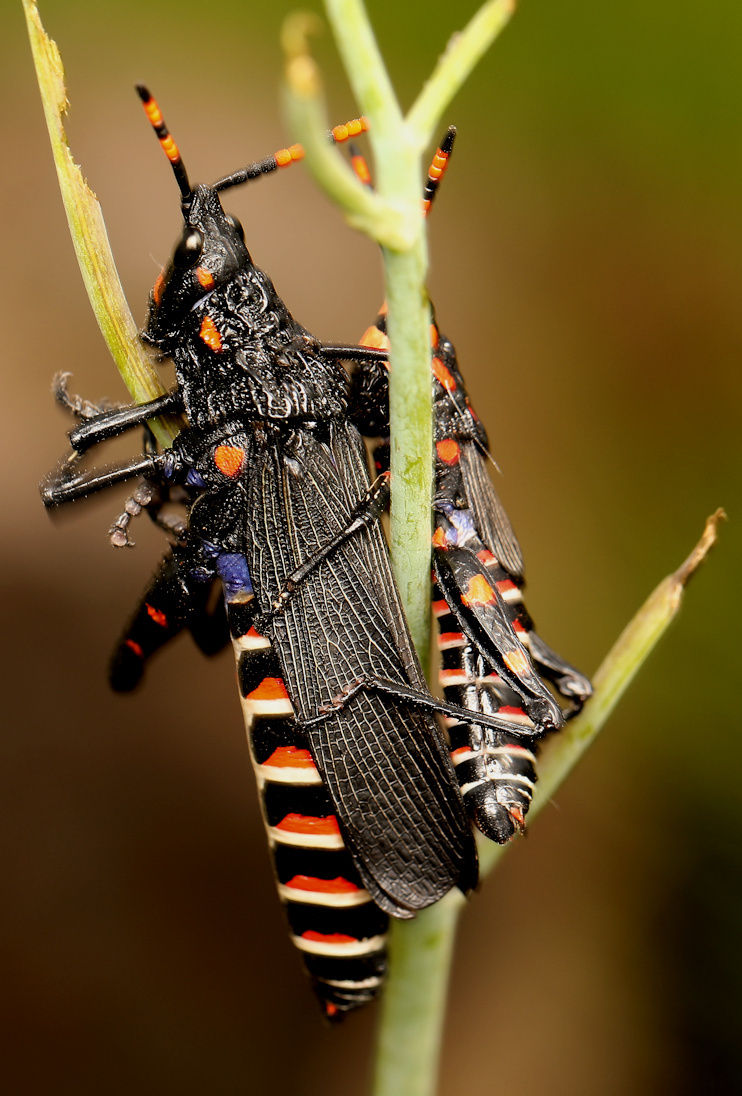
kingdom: Animalia
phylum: Arthropoda
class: Insecta
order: Orthoptera
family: Pyrgomorphidae
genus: Maura
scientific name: Maura rubroornata
